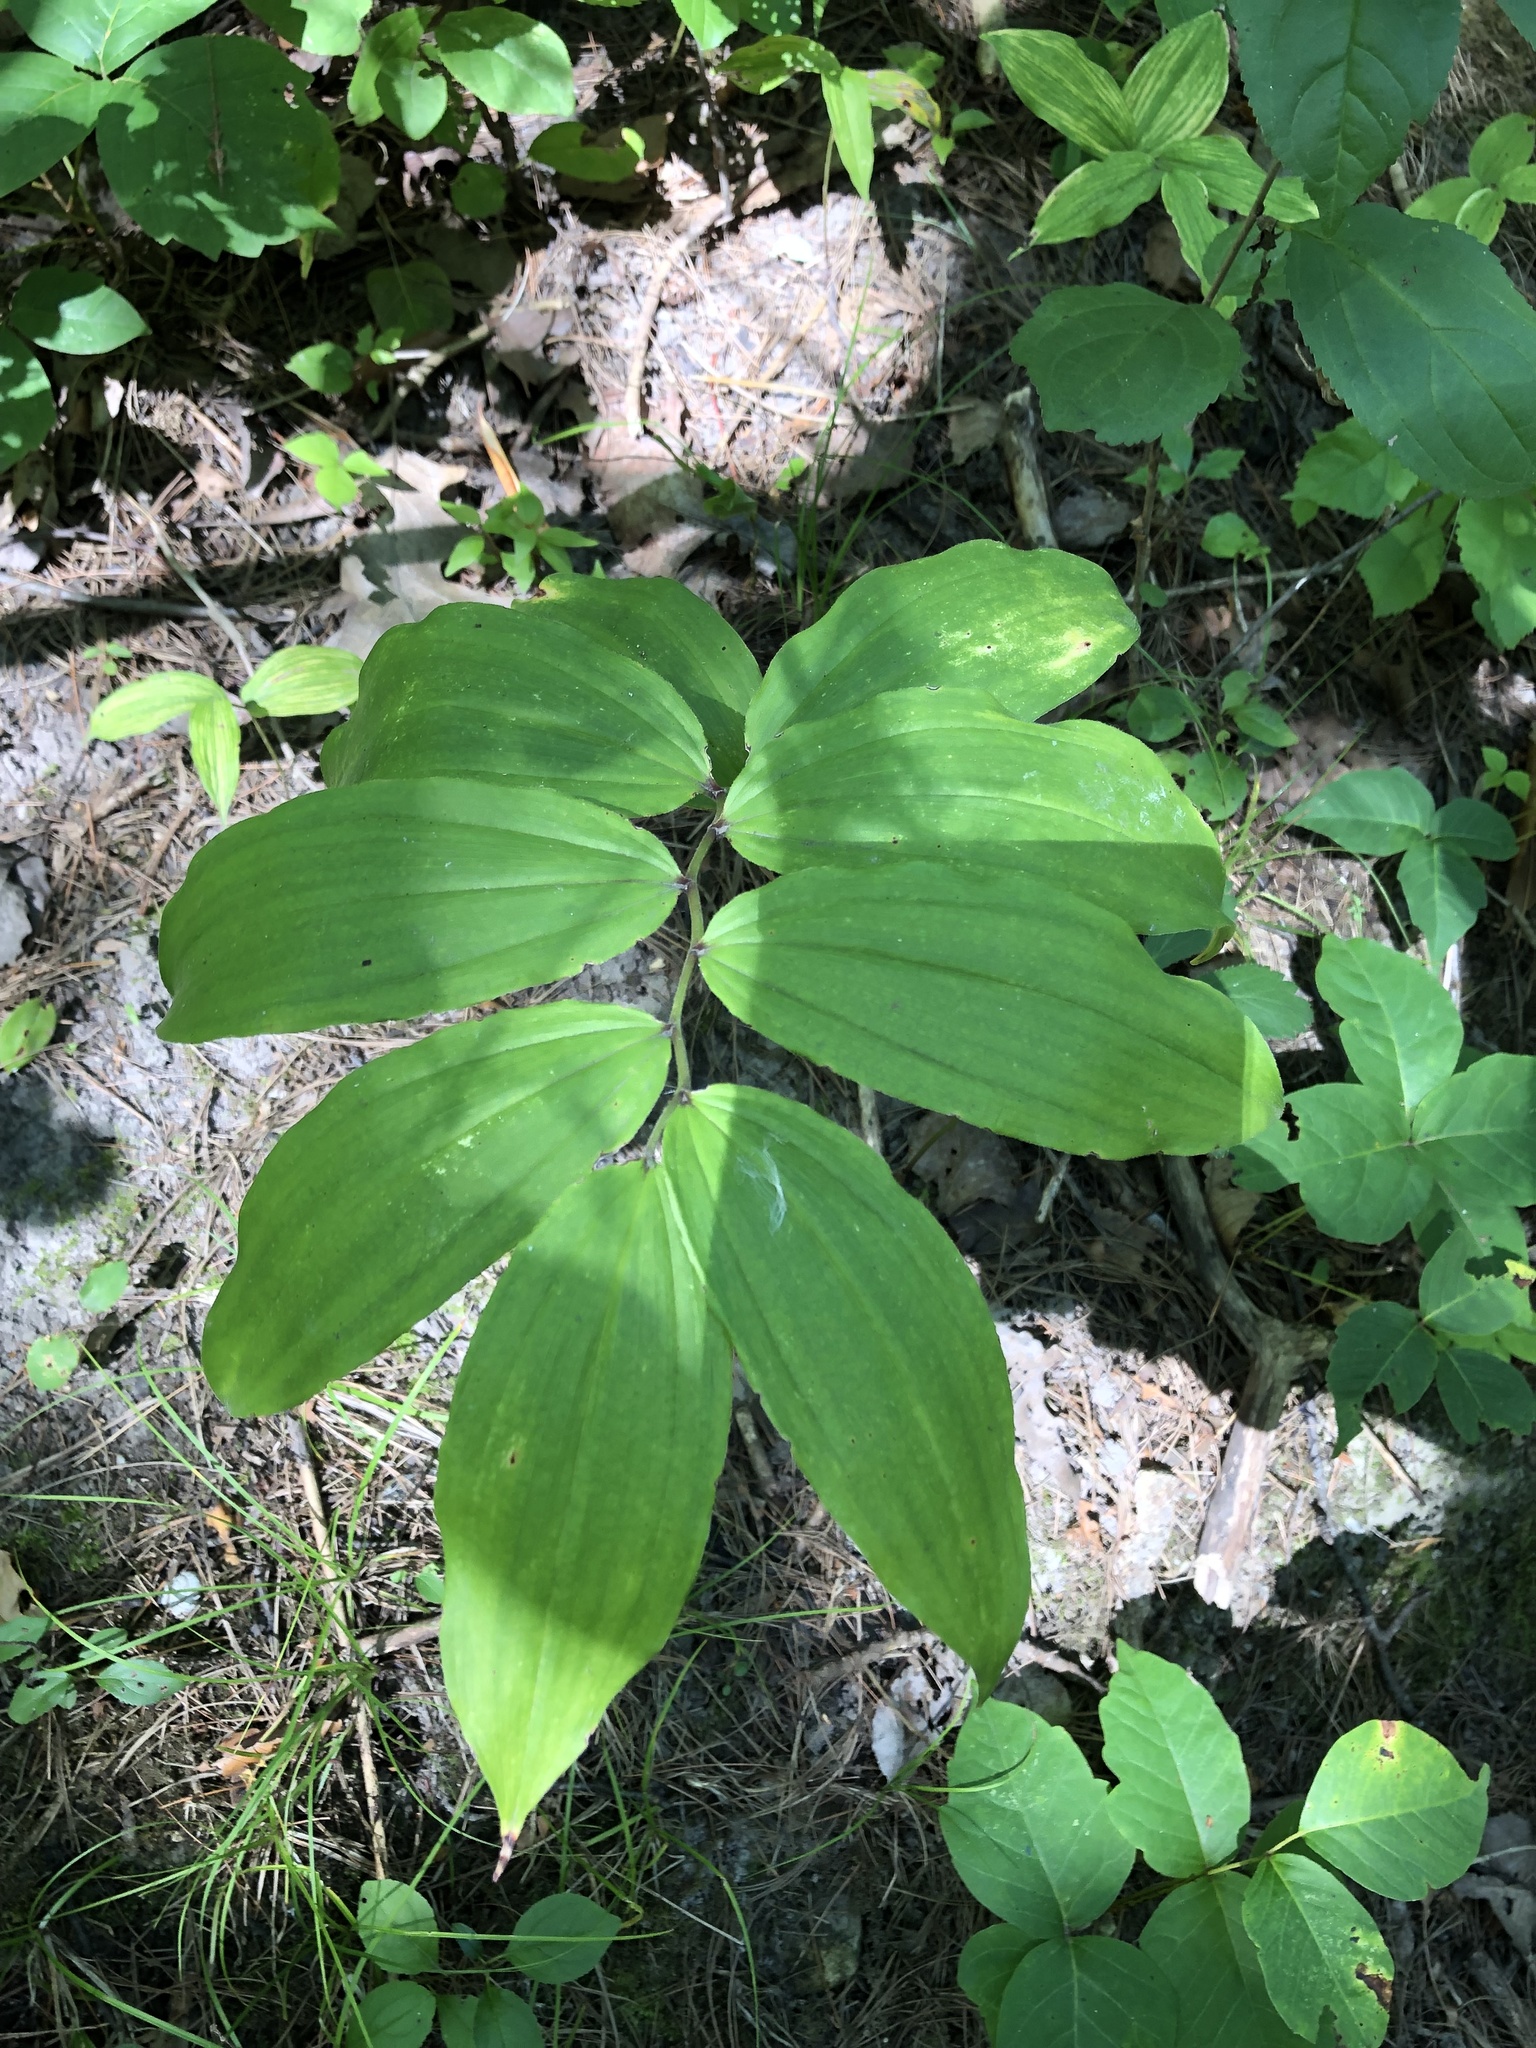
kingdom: Plantae
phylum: Tracheophyta
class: Liliopsida
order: Asparagales
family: Asparagaceae
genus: Maianthemum
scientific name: Maianthemum racemosum
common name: False spikenard
